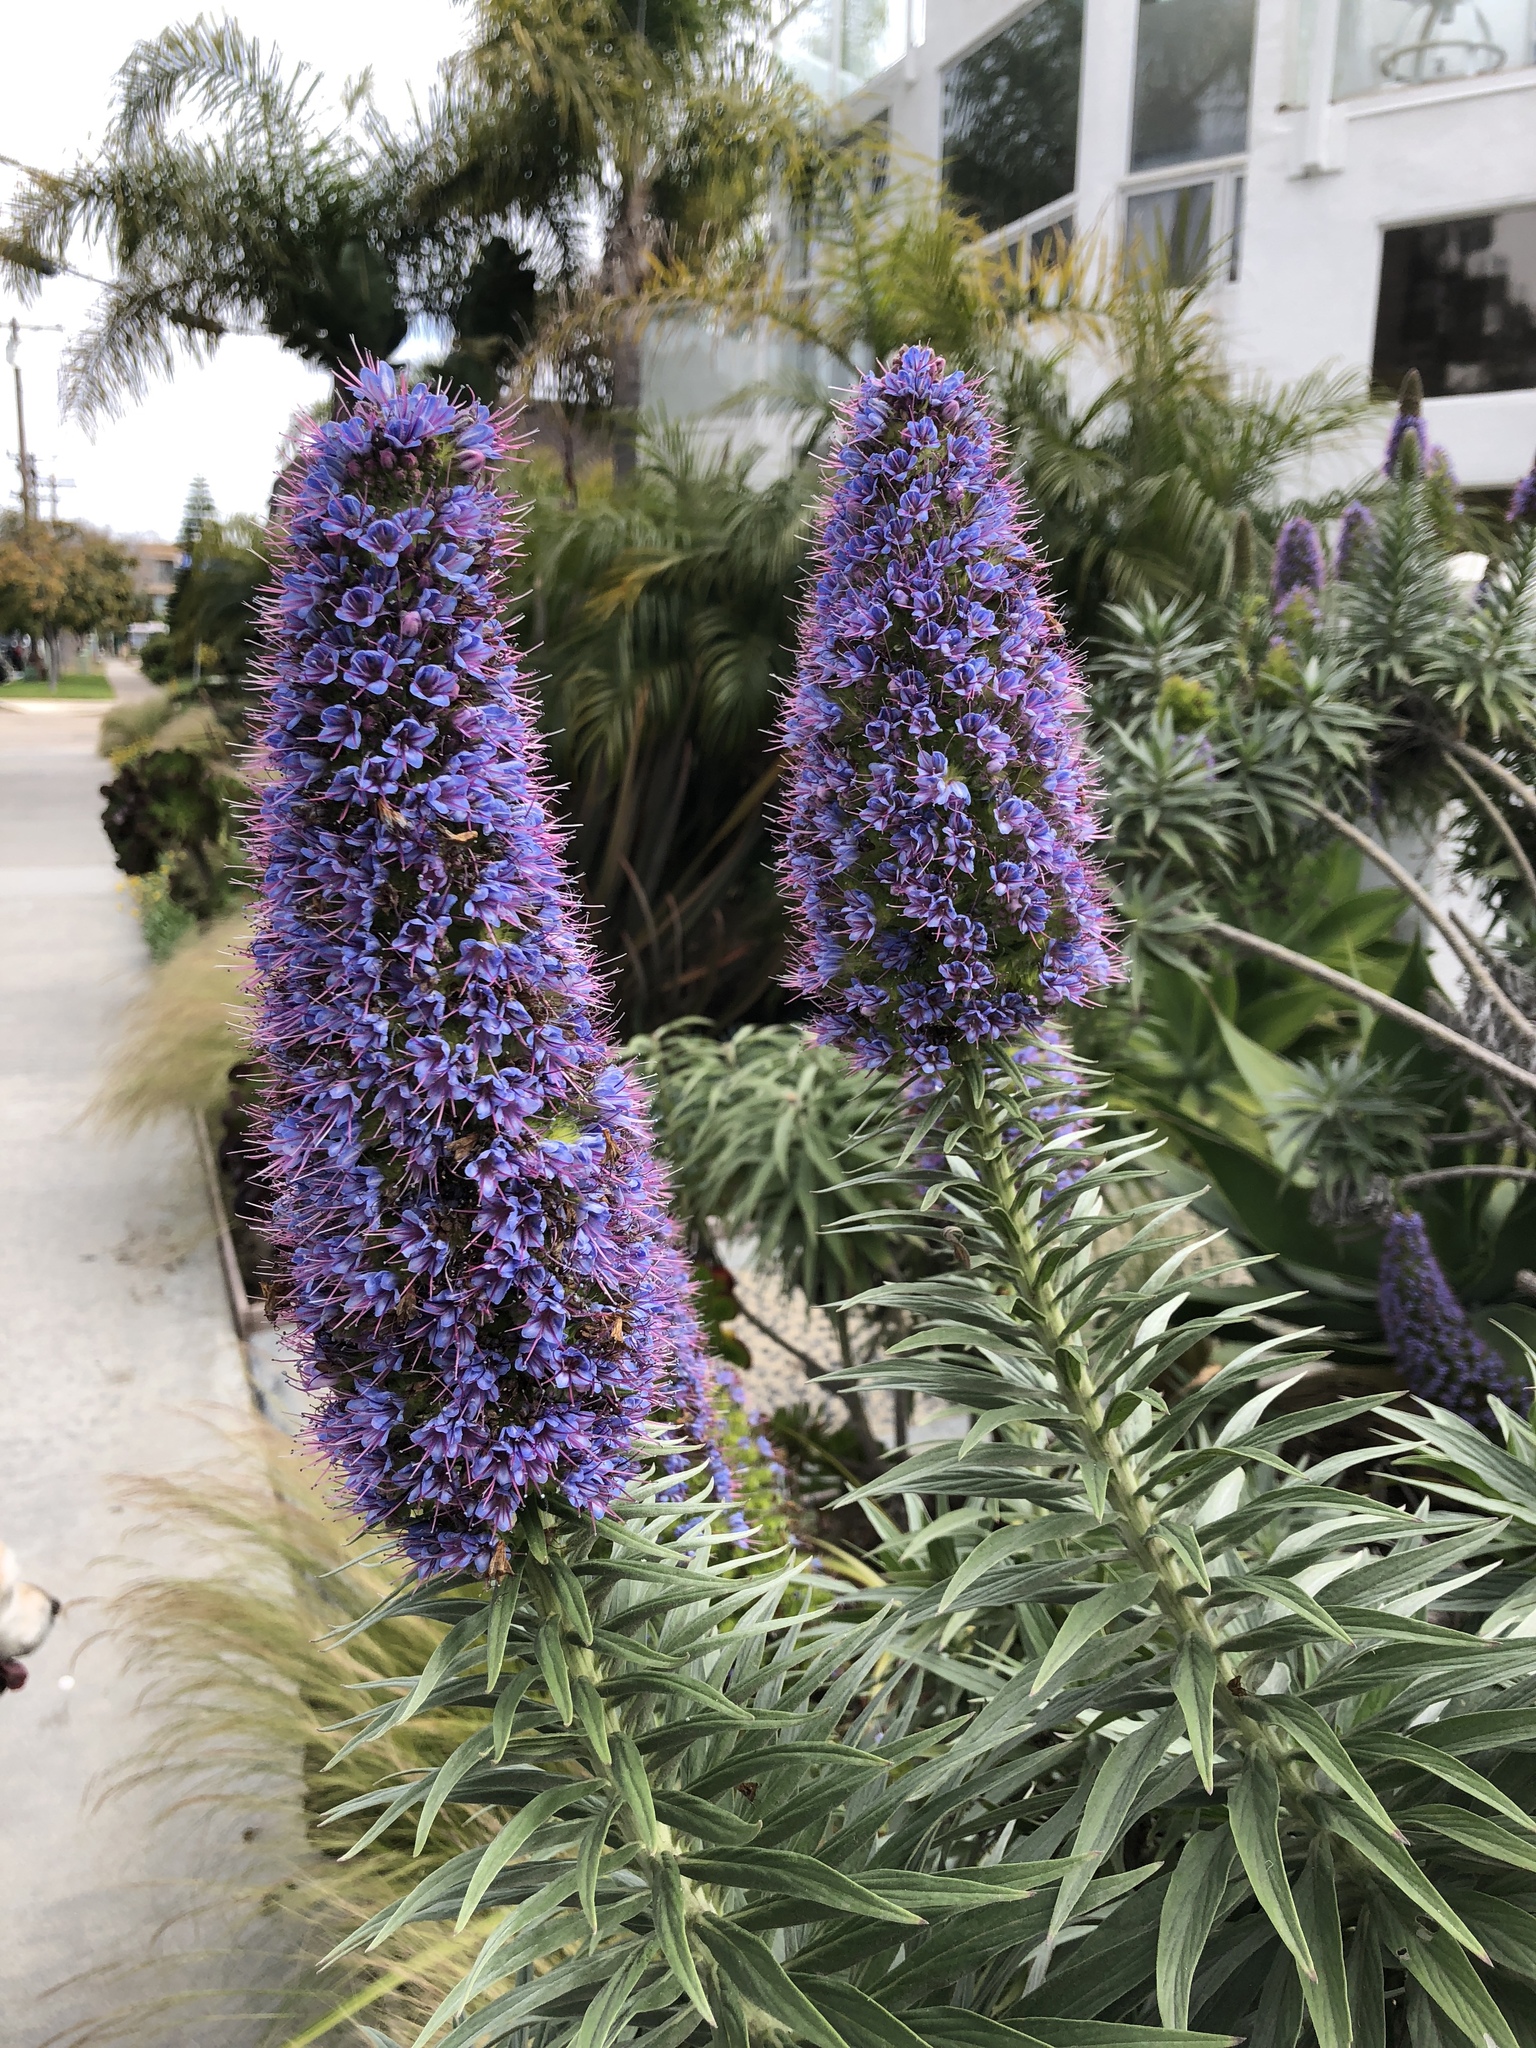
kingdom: Plantae
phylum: Tracheophyta
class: Magnoliopsida
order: Boraginales
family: Boraginaceae
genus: Echium
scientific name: Echium candicans
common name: Pride of madeira
